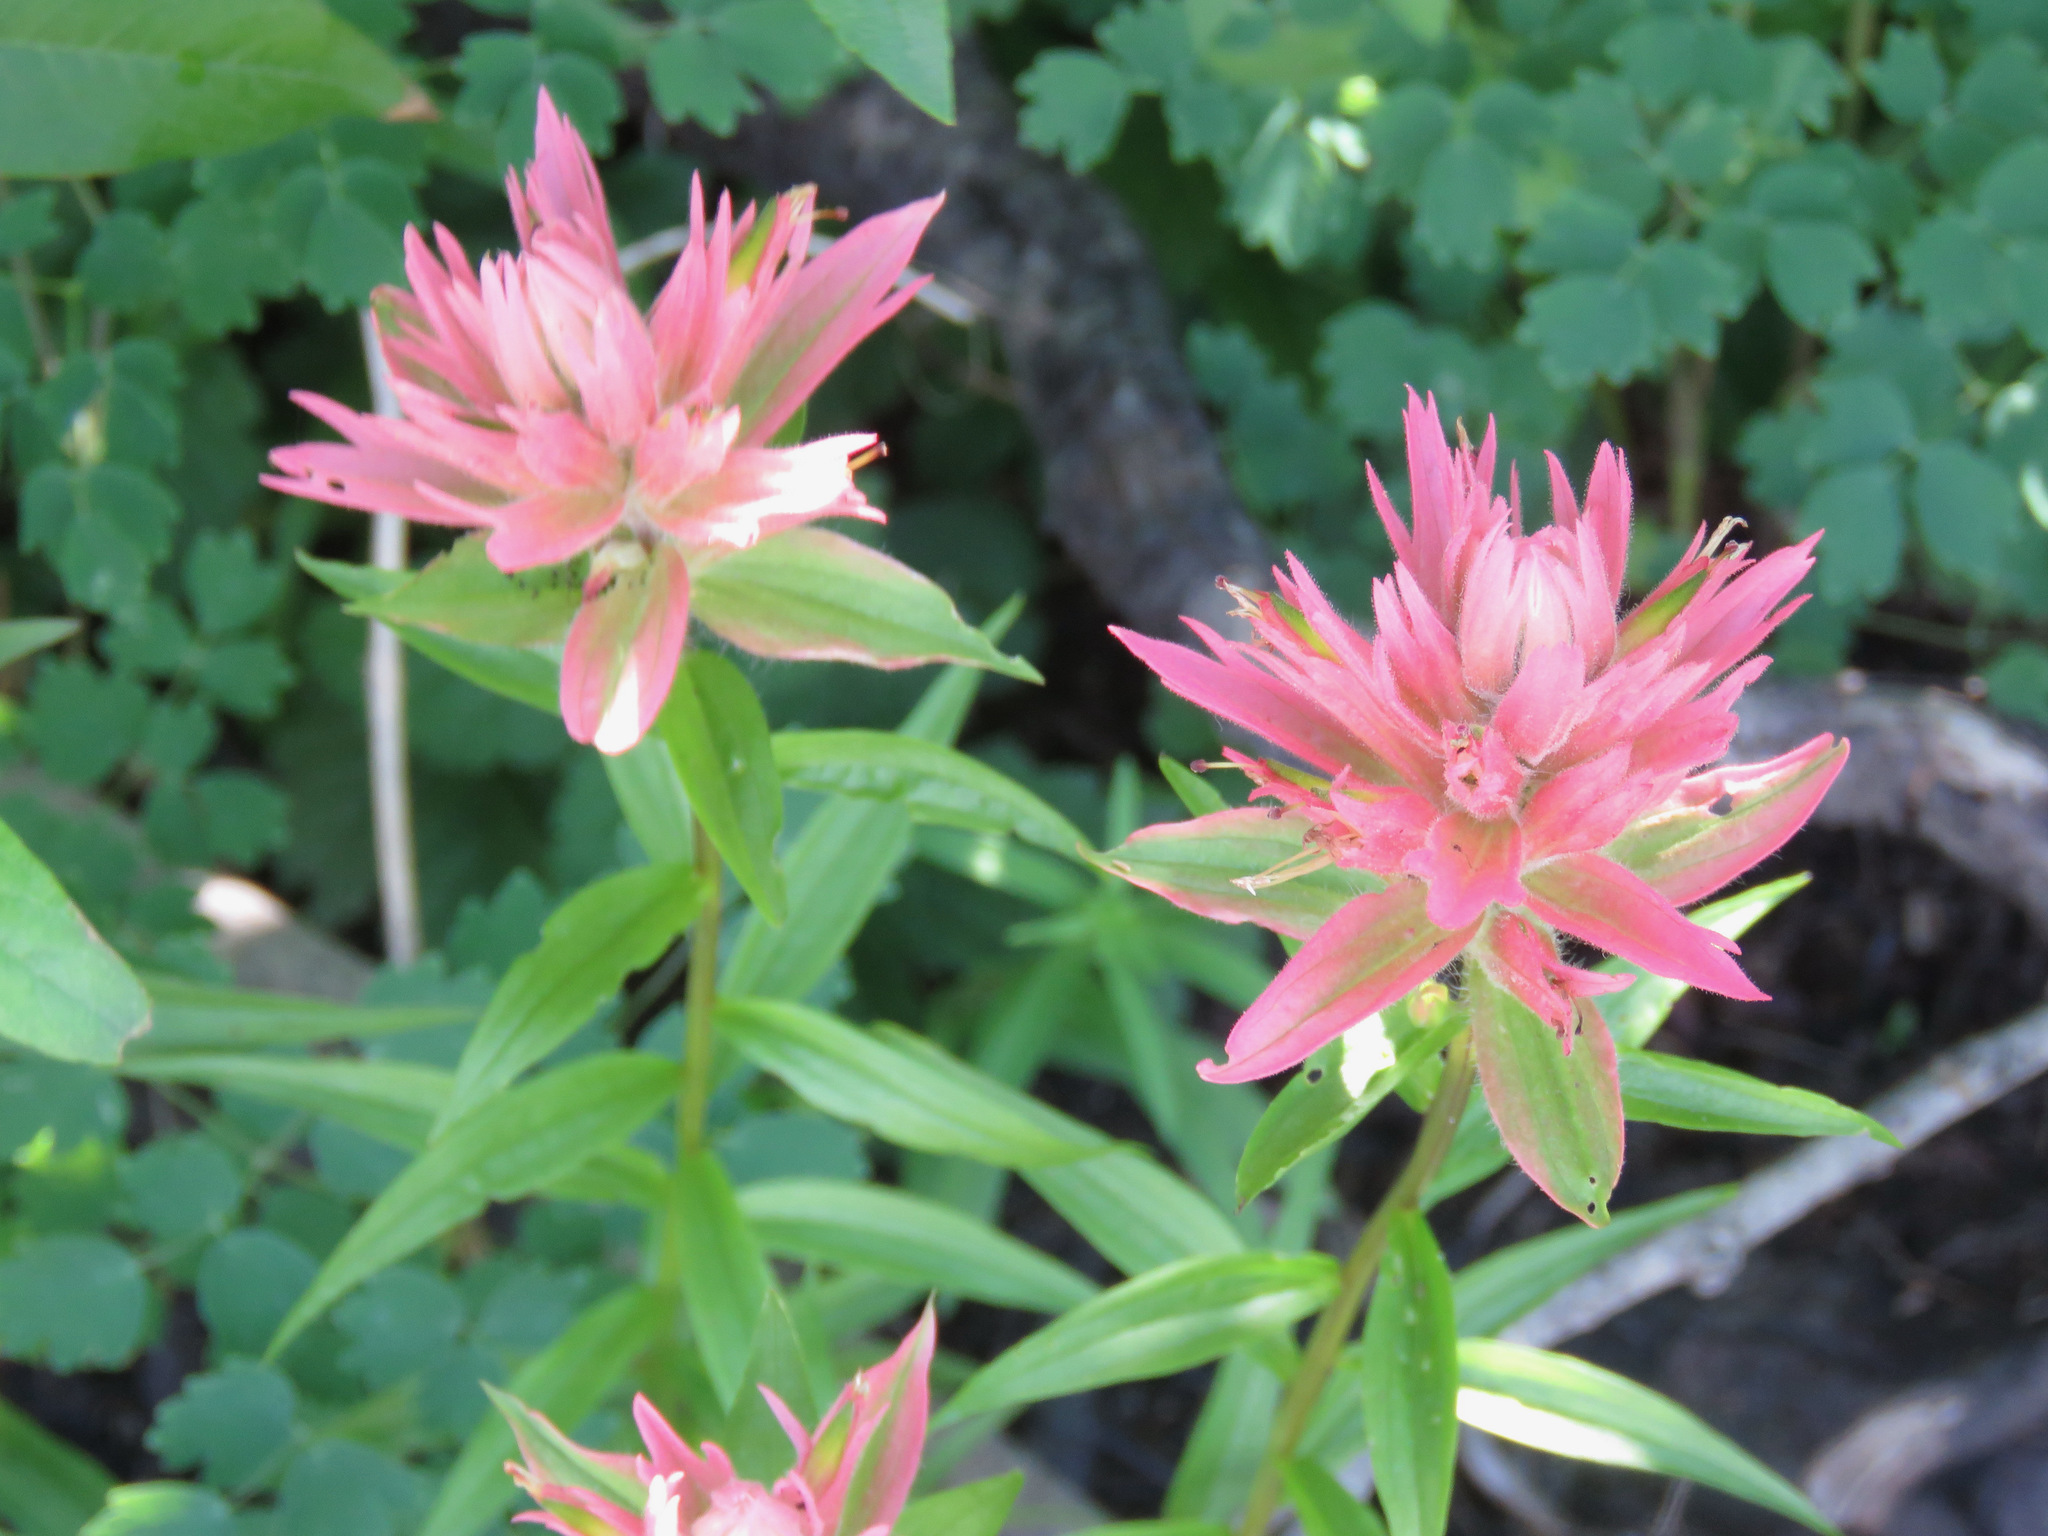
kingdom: Plantae
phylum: Tracheophyta
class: Magnoliopsida
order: Lamiales
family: Orobanchaceae
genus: Castilleja
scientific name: Castilleja miniata
